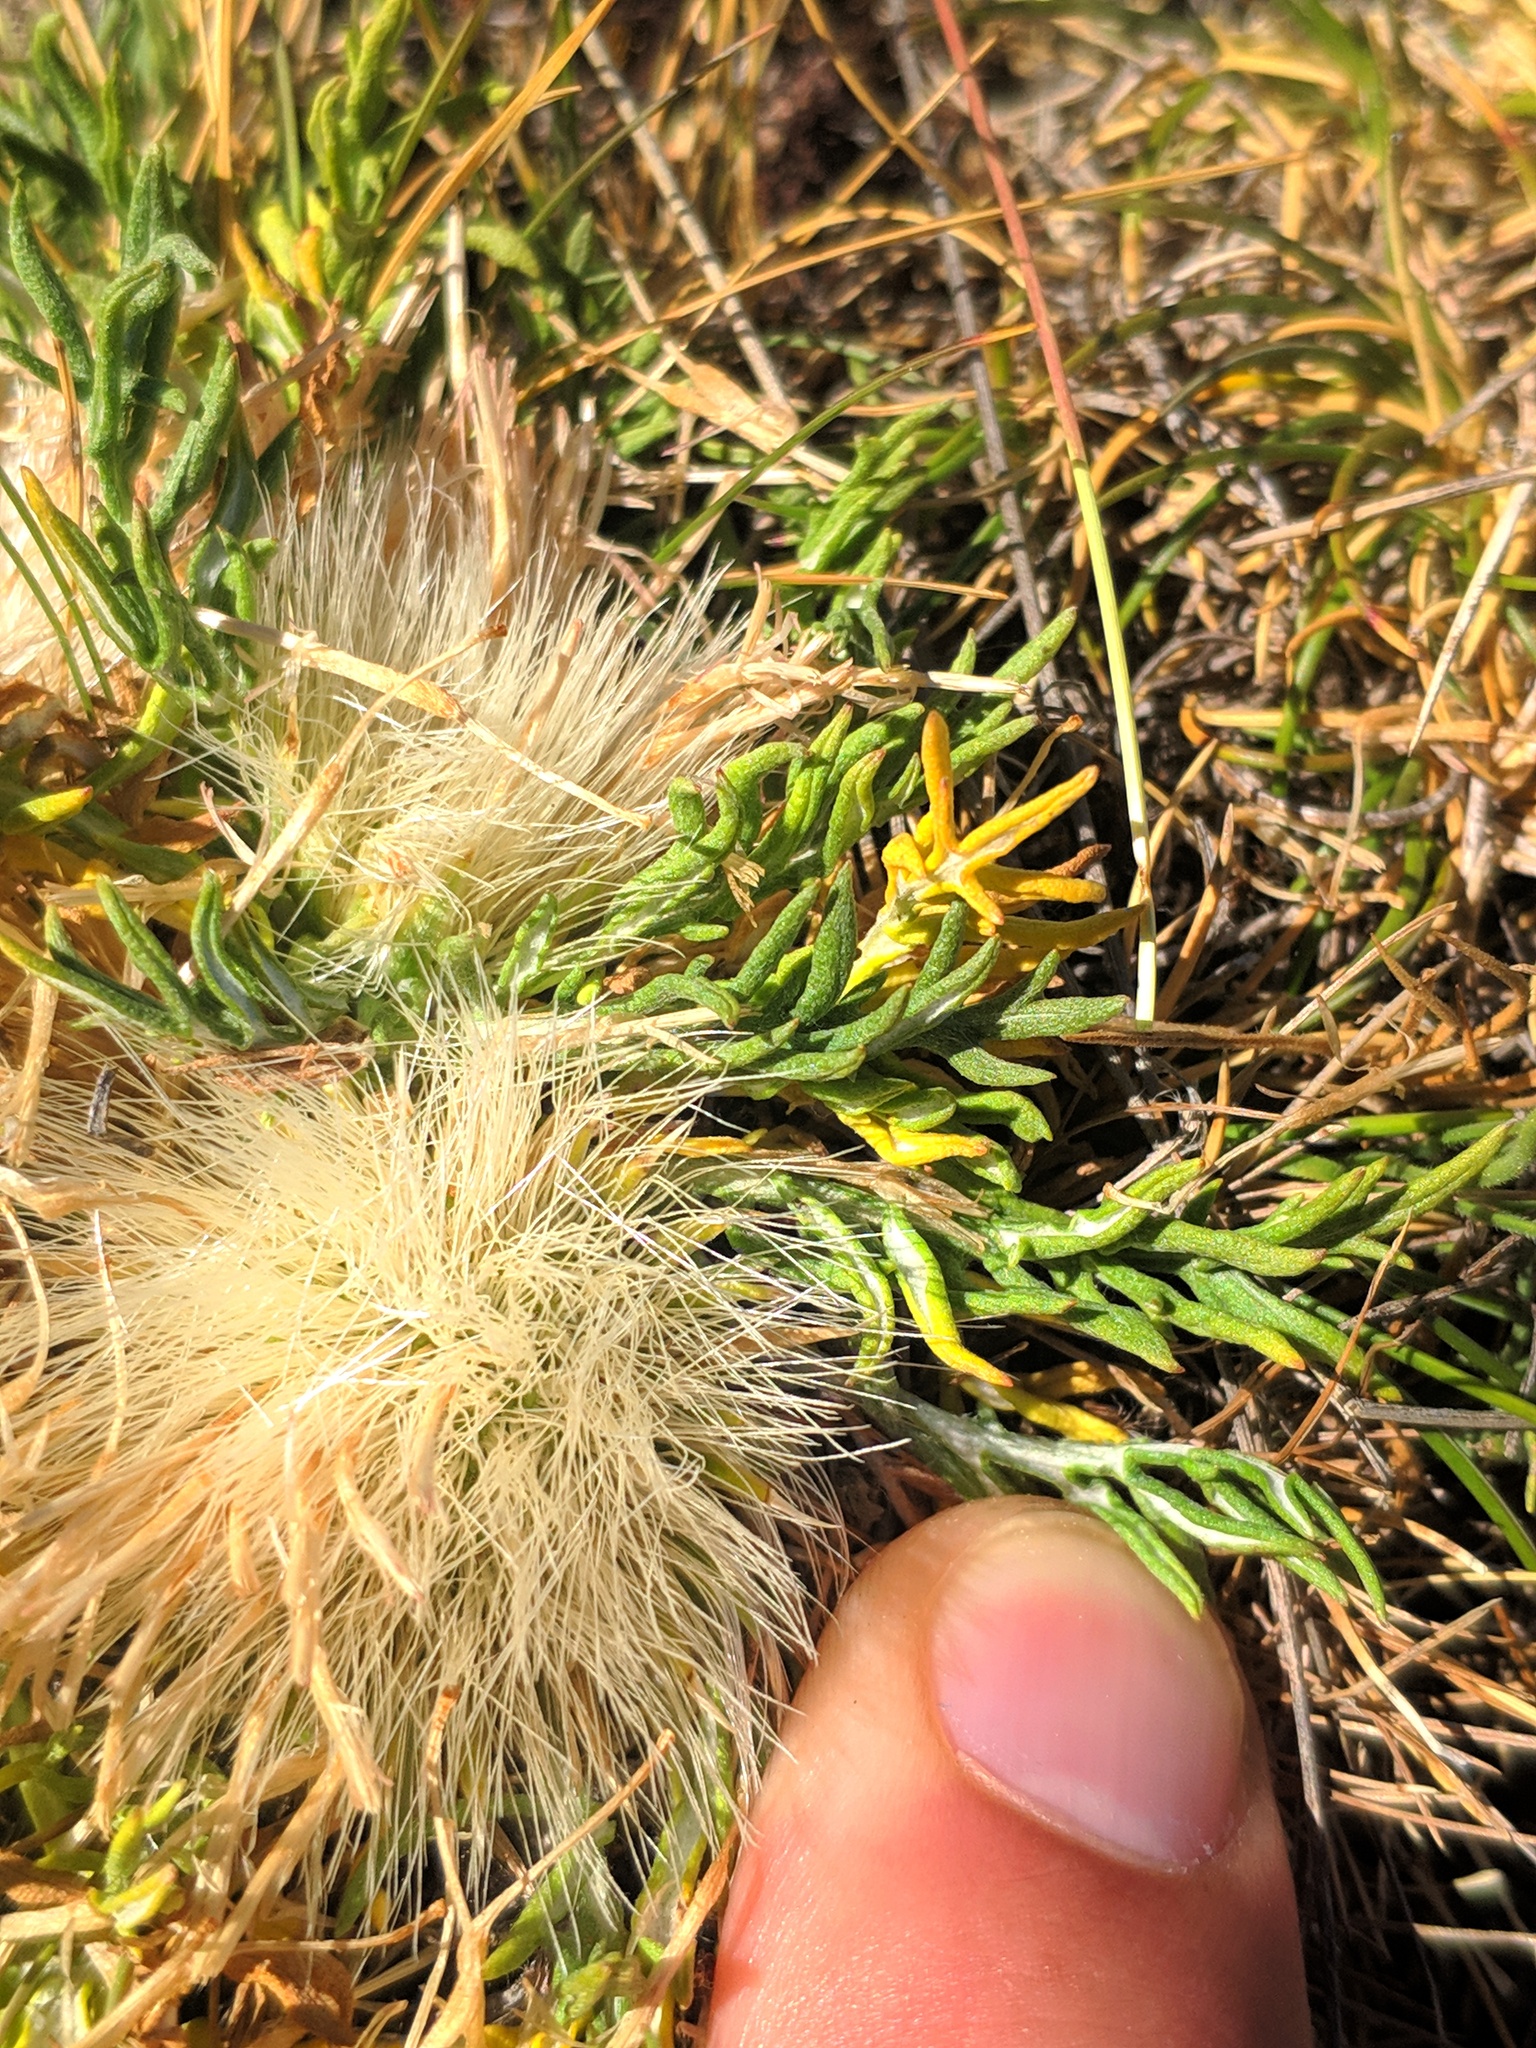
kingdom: Plantae
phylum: Tracheophyta
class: Magnoliopsida
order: Asterales
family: Asteraceae
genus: Jurinea
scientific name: Jurinea humilis
